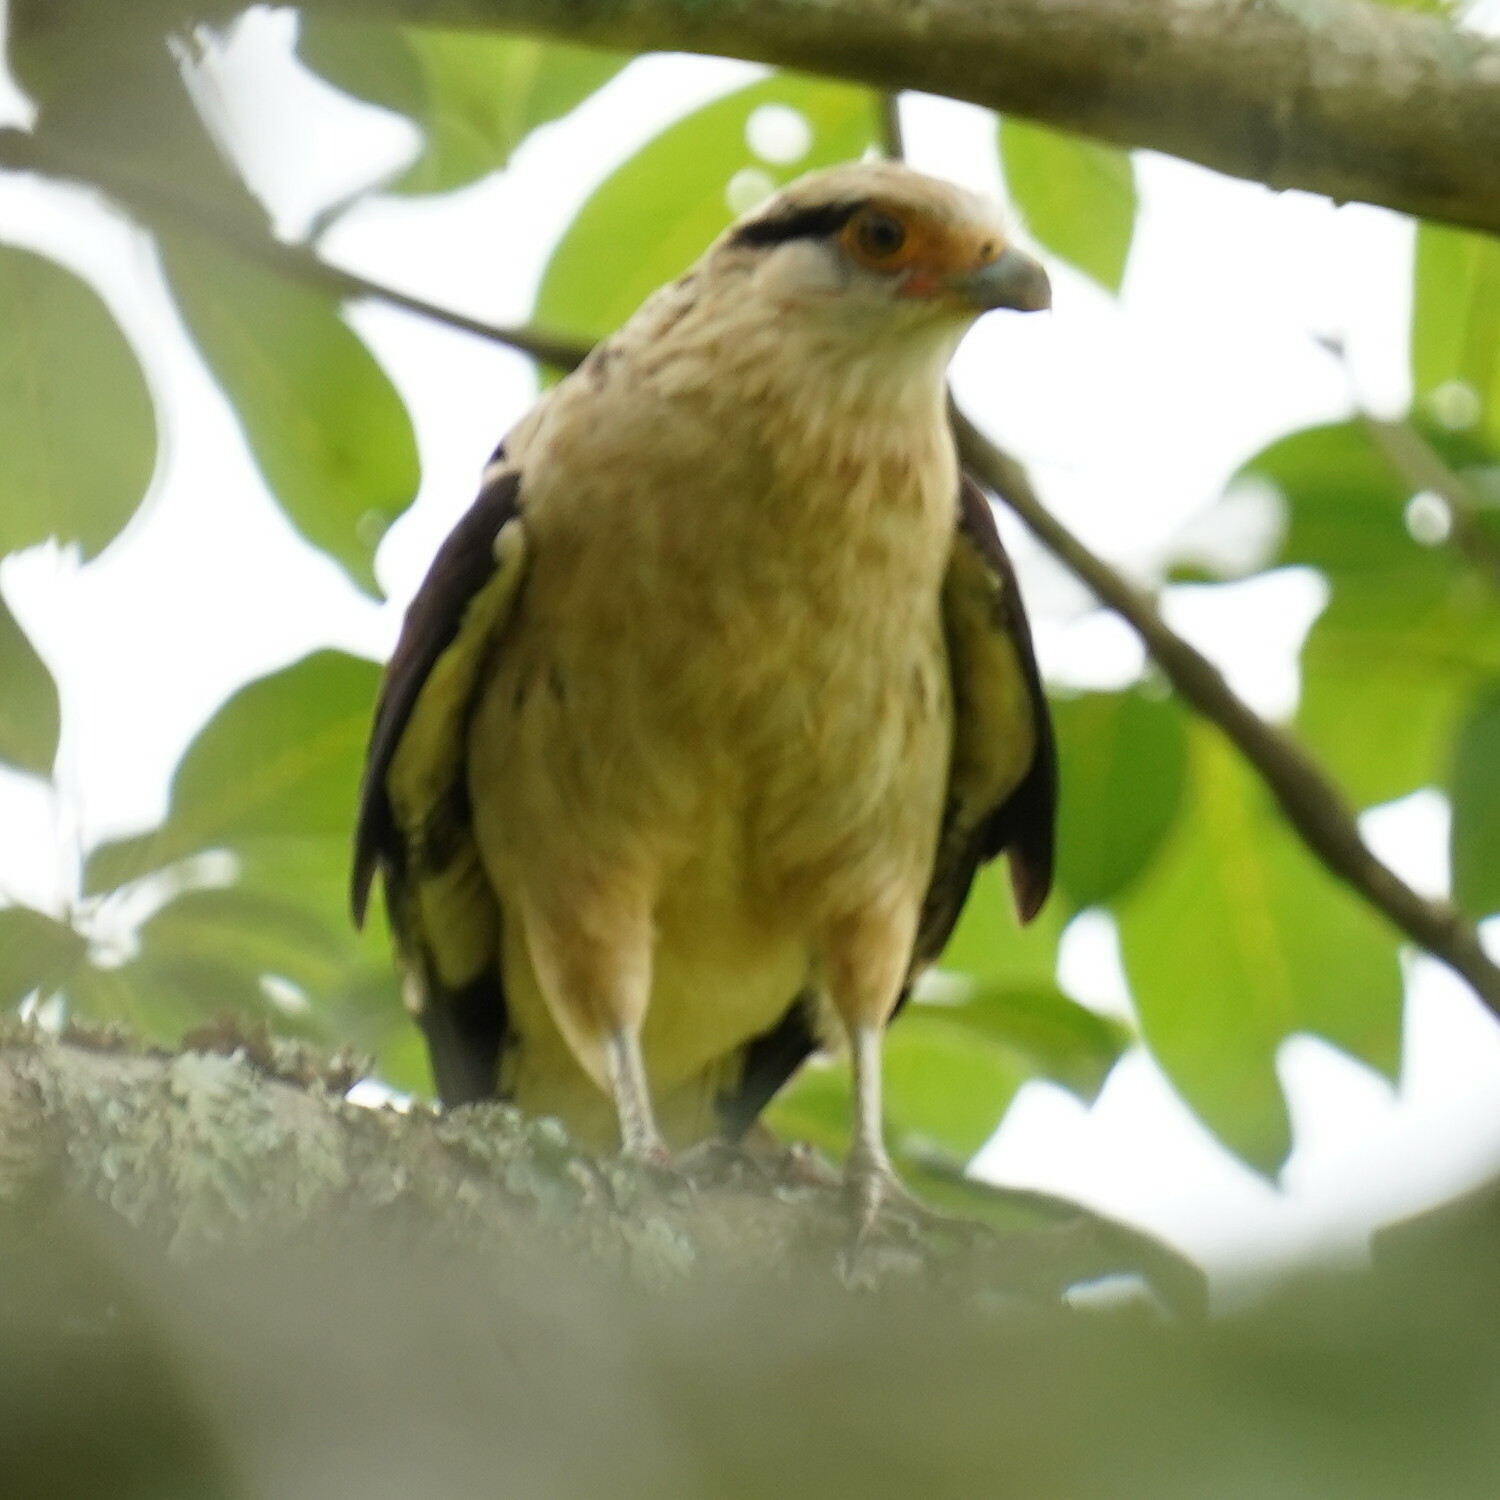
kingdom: Animalia
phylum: Chordata
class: Aves
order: Falconiformes
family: Falconidae
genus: Daptrius
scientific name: Daptrius
